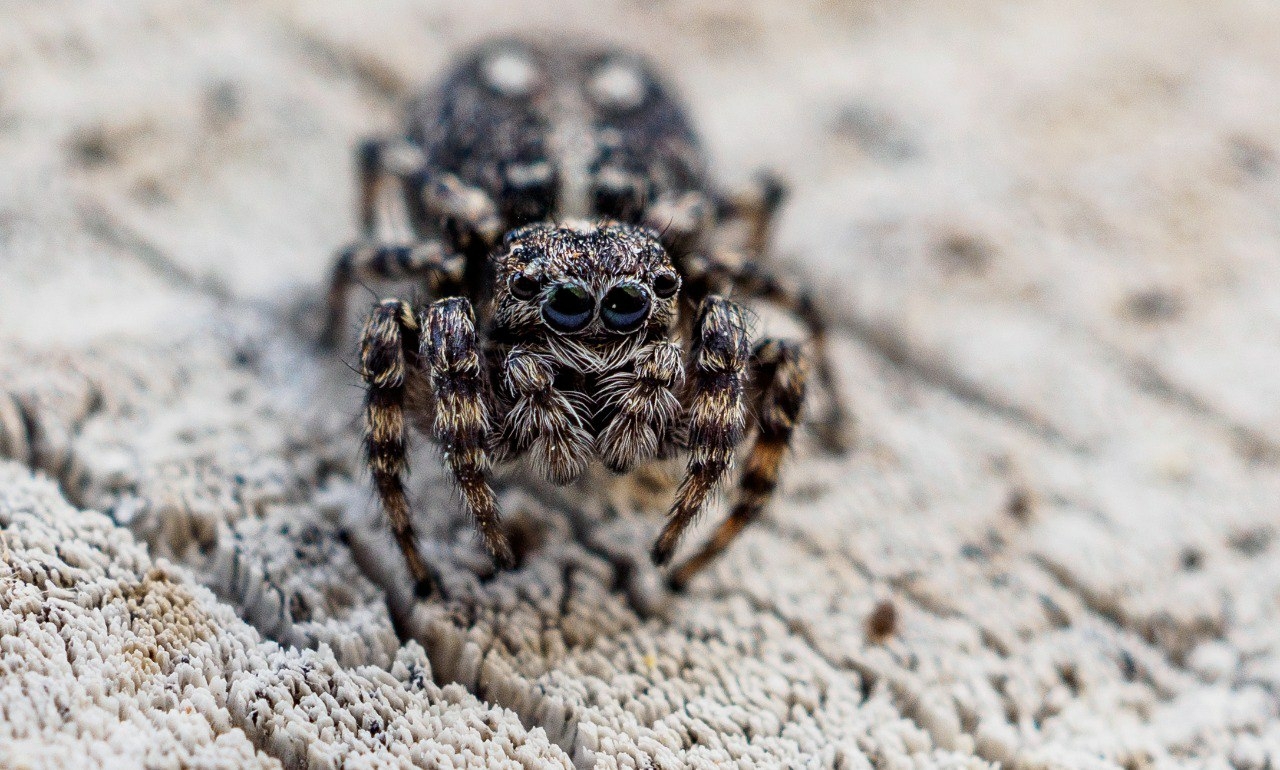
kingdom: Animalia
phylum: Arthropoda
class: Arachnida
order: Araneae
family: Salticidae
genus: Attulus
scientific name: Attulus terebratus
